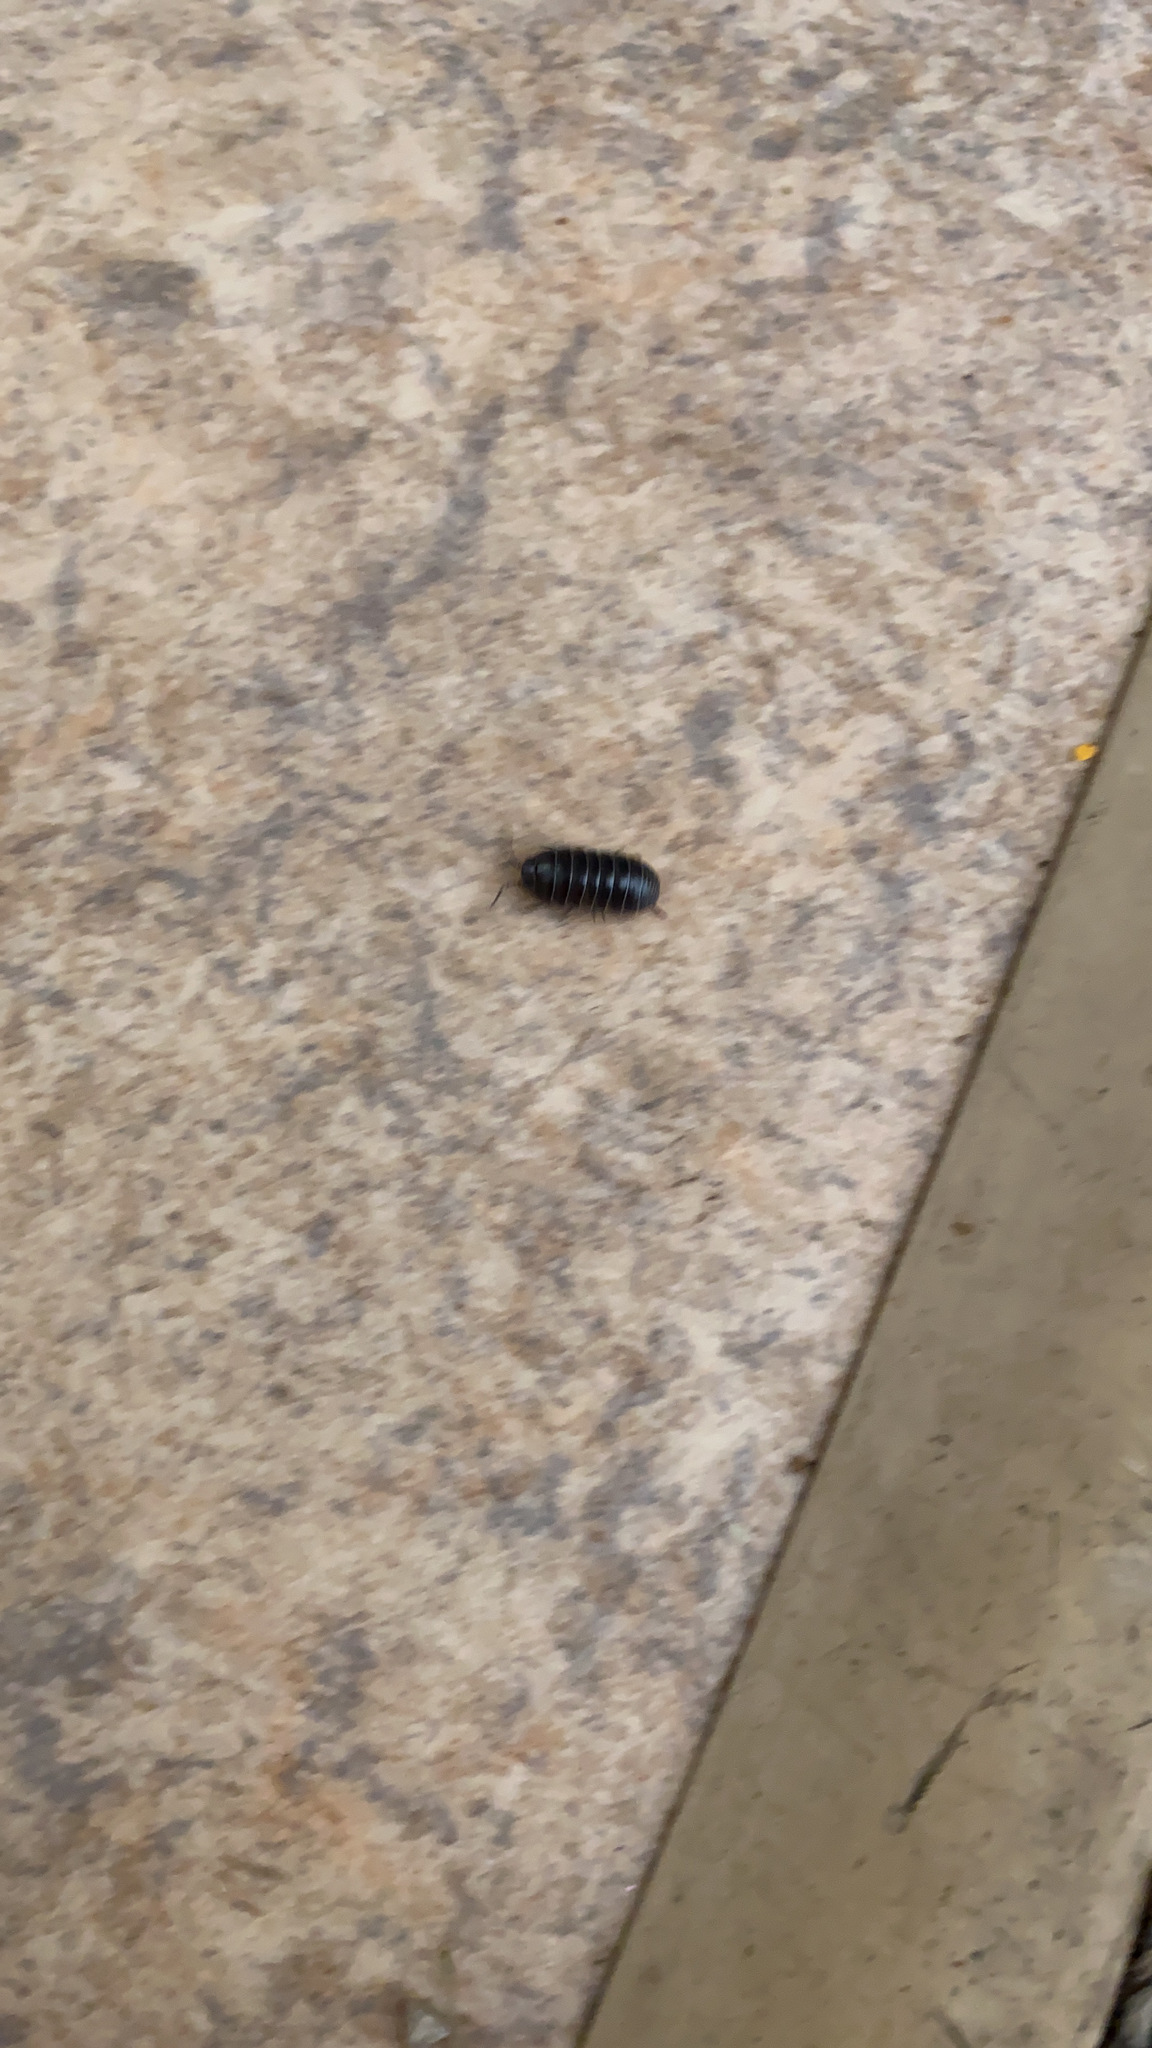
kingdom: Animalia
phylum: Arthropoda
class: Malacostraca
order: Isopoda
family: Armadillidiidae
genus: Armadillidium
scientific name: Armadillidium vulgare
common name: Common pill woodlouse
